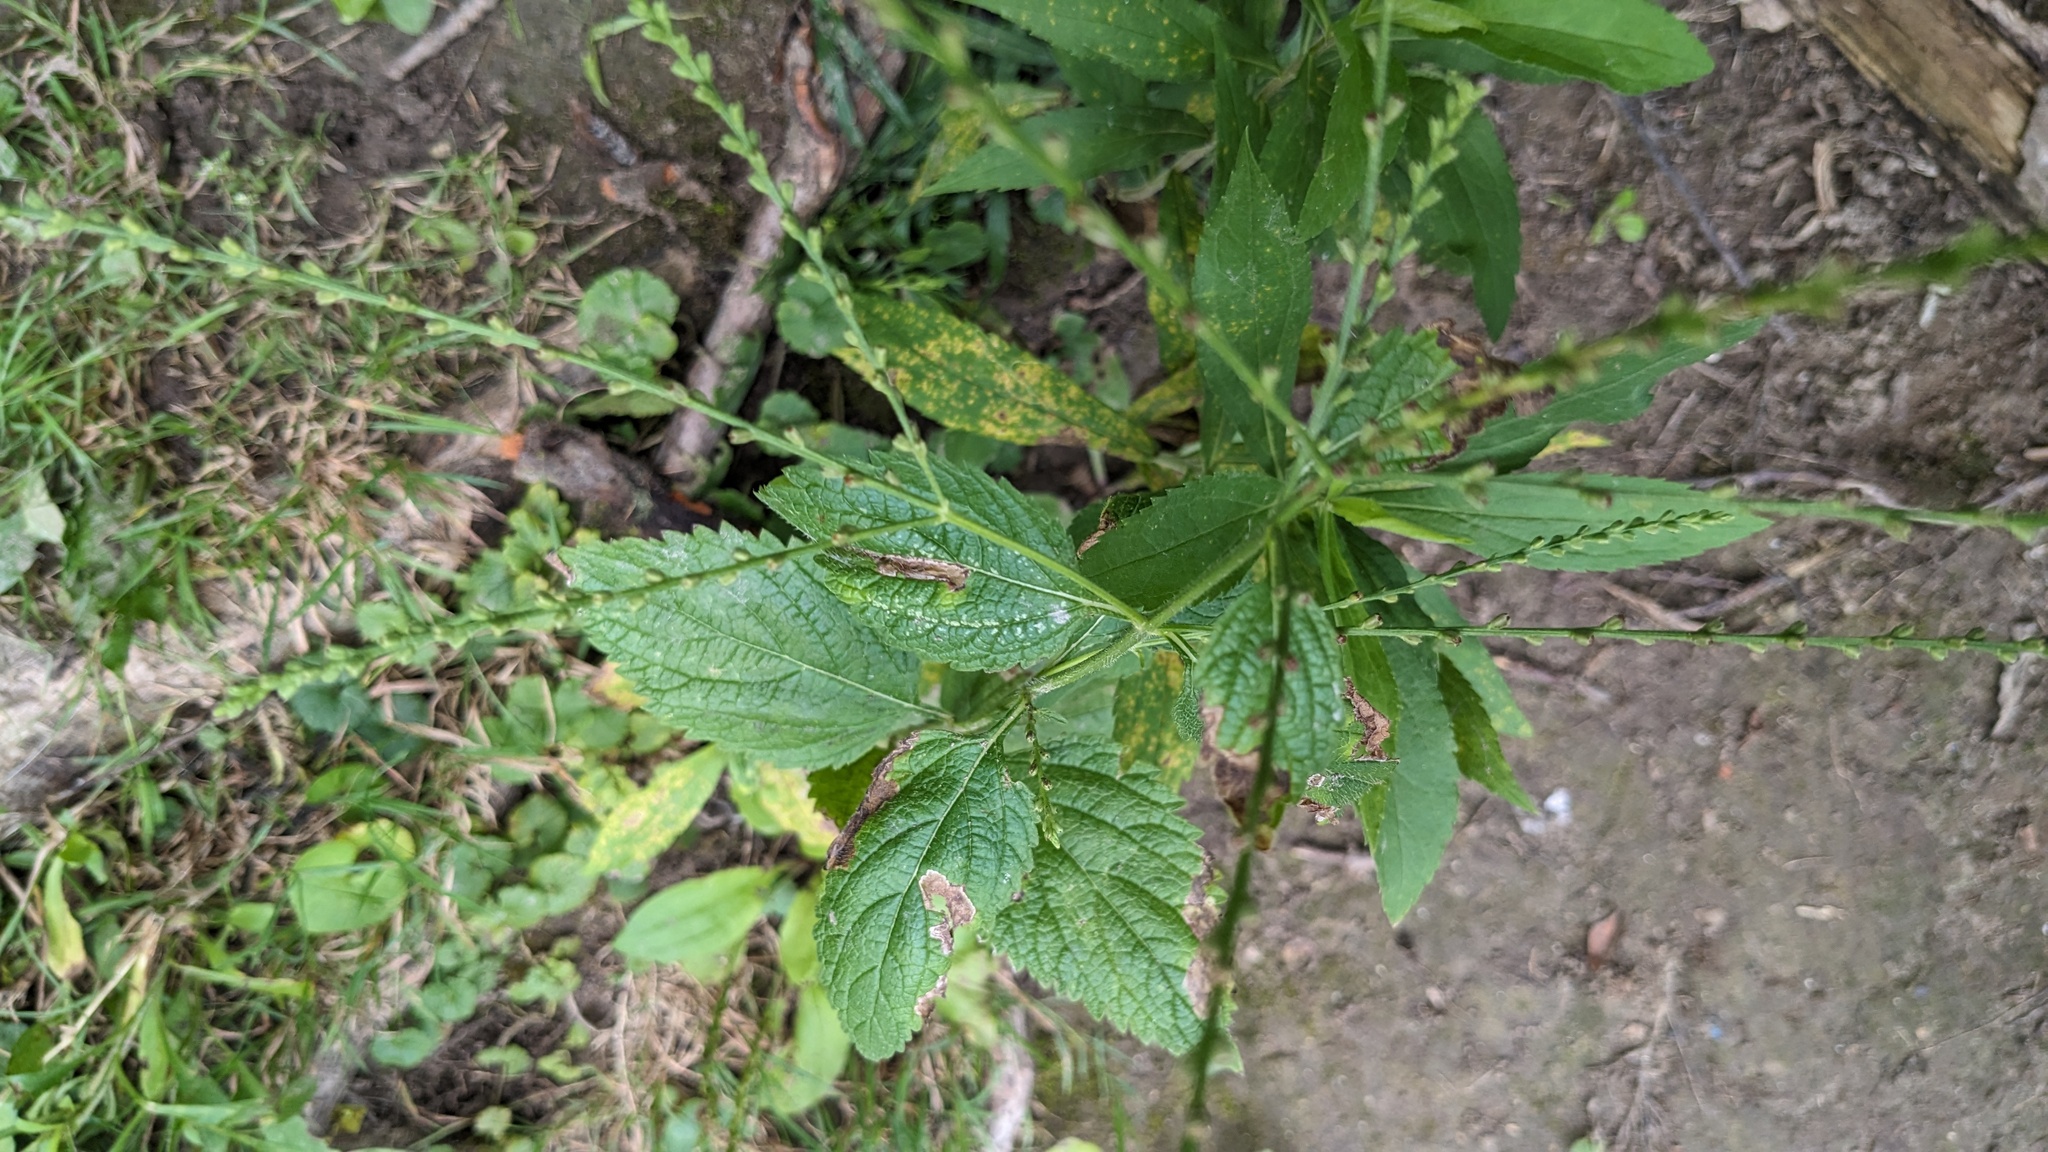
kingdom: Plantae
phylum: Tracheophyta
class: Magnoliopsida
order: Lamiales
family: Verbenaceae
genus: Verbena
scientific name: Verbena urticifolia
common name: Nettle-leaved vervain
